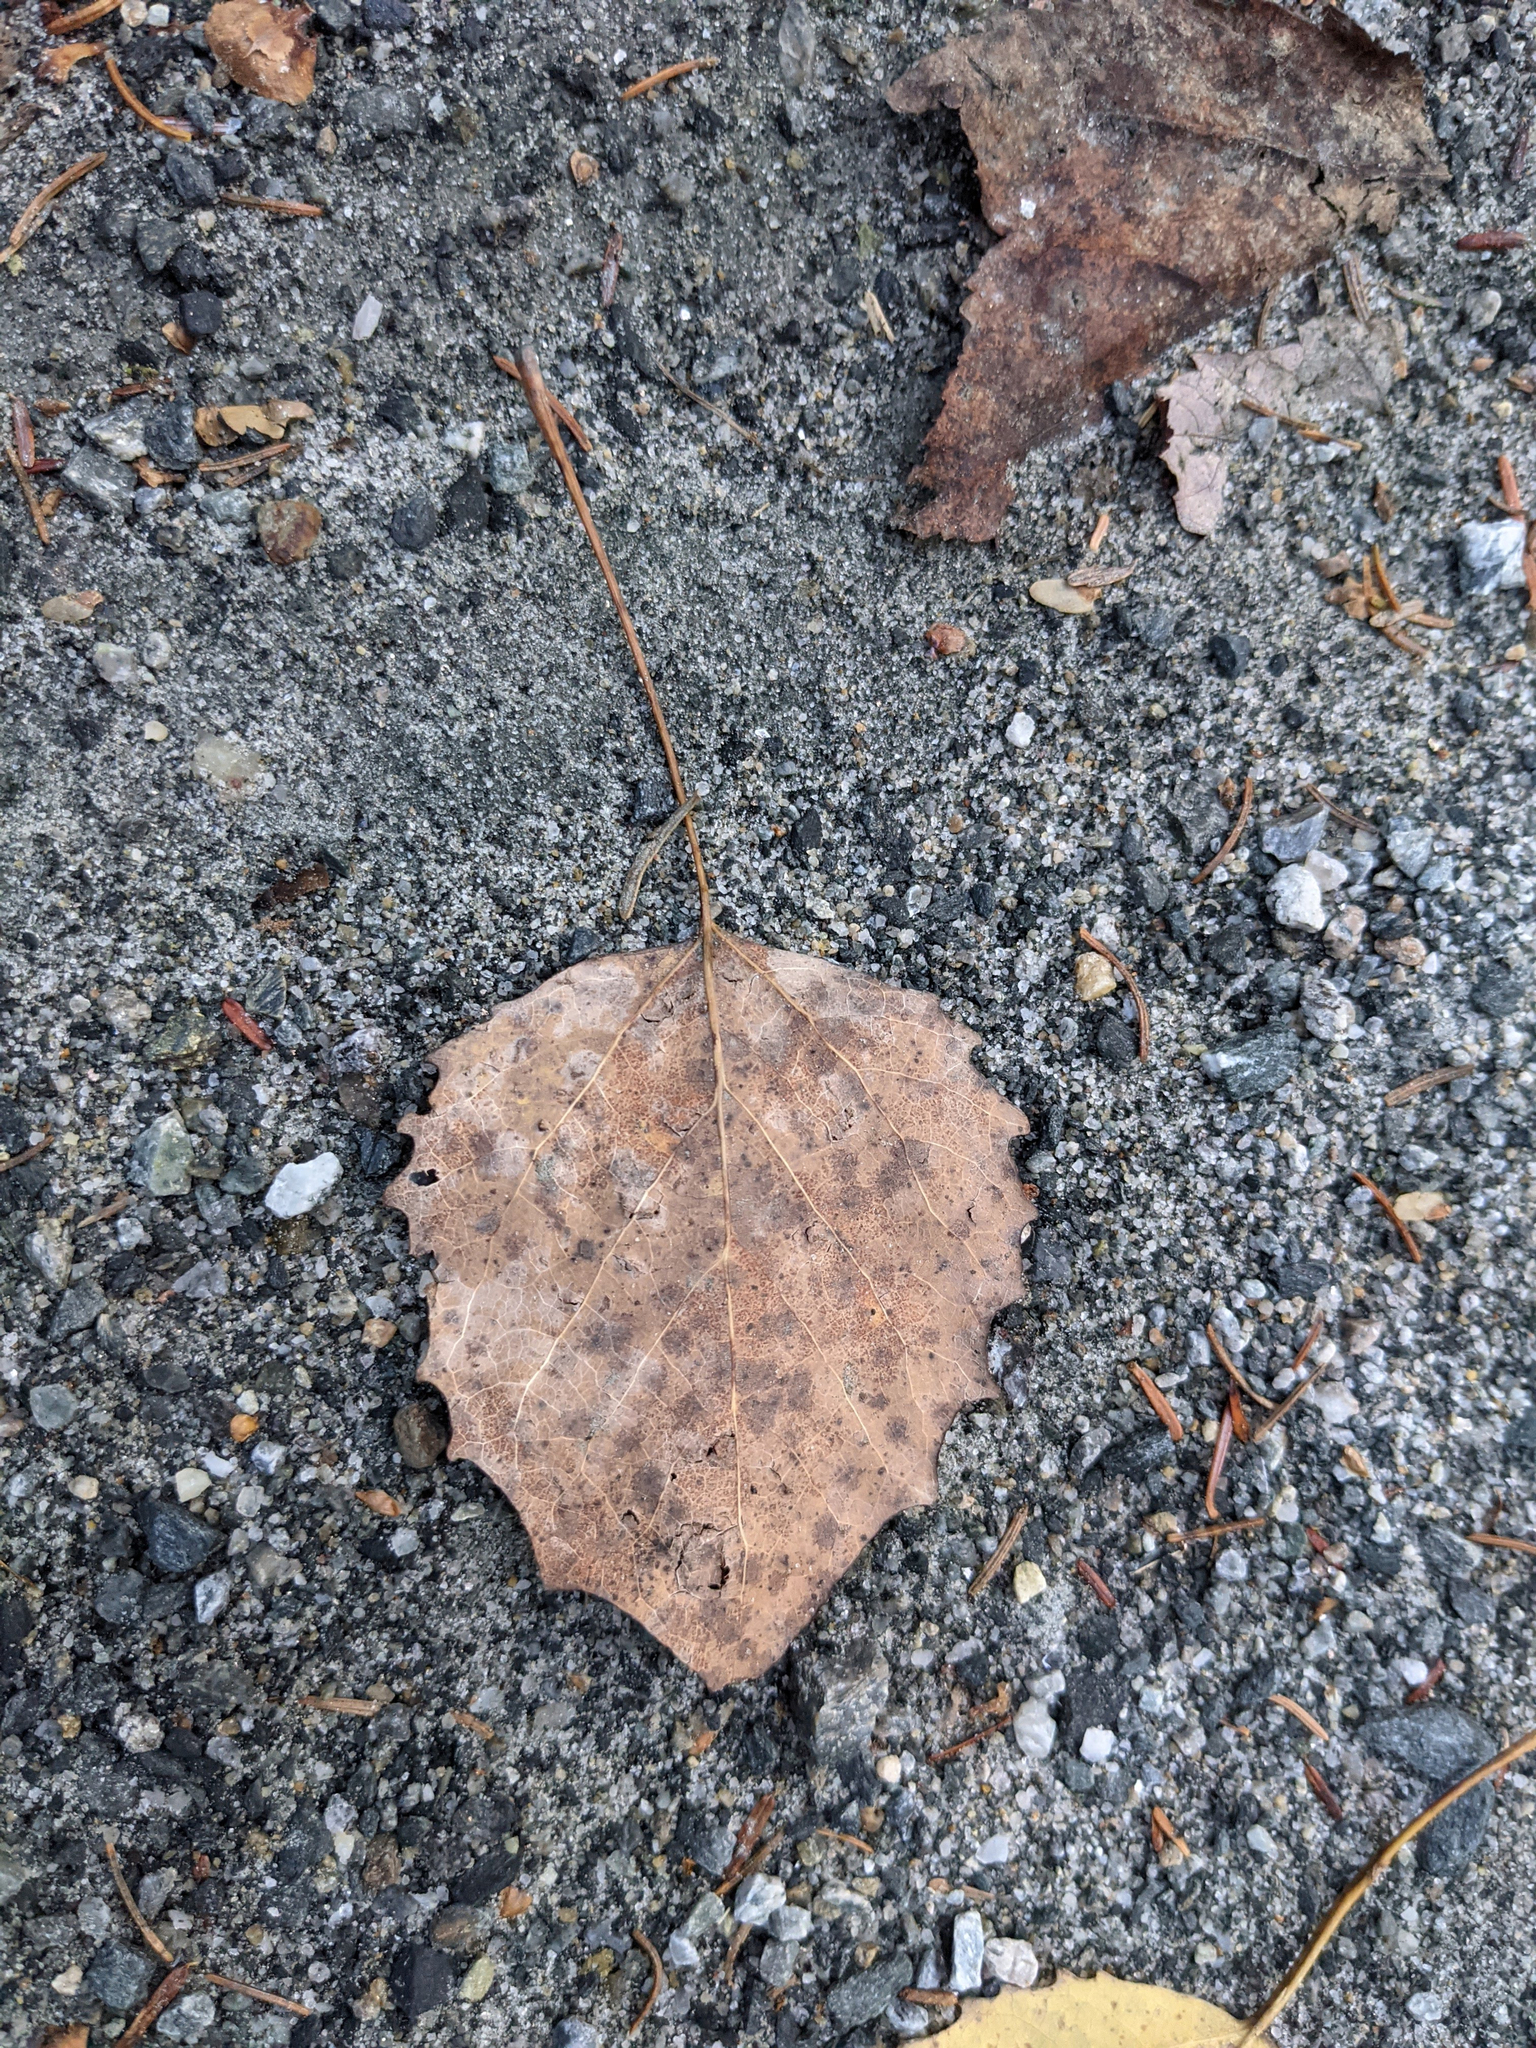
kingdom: Plantae
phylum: Tracheophyta
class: Magnoliopsida
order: Malpighiales
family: Salicaceae
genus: Populus
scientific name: Populus grandidentata
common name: Bigtooth aspen
